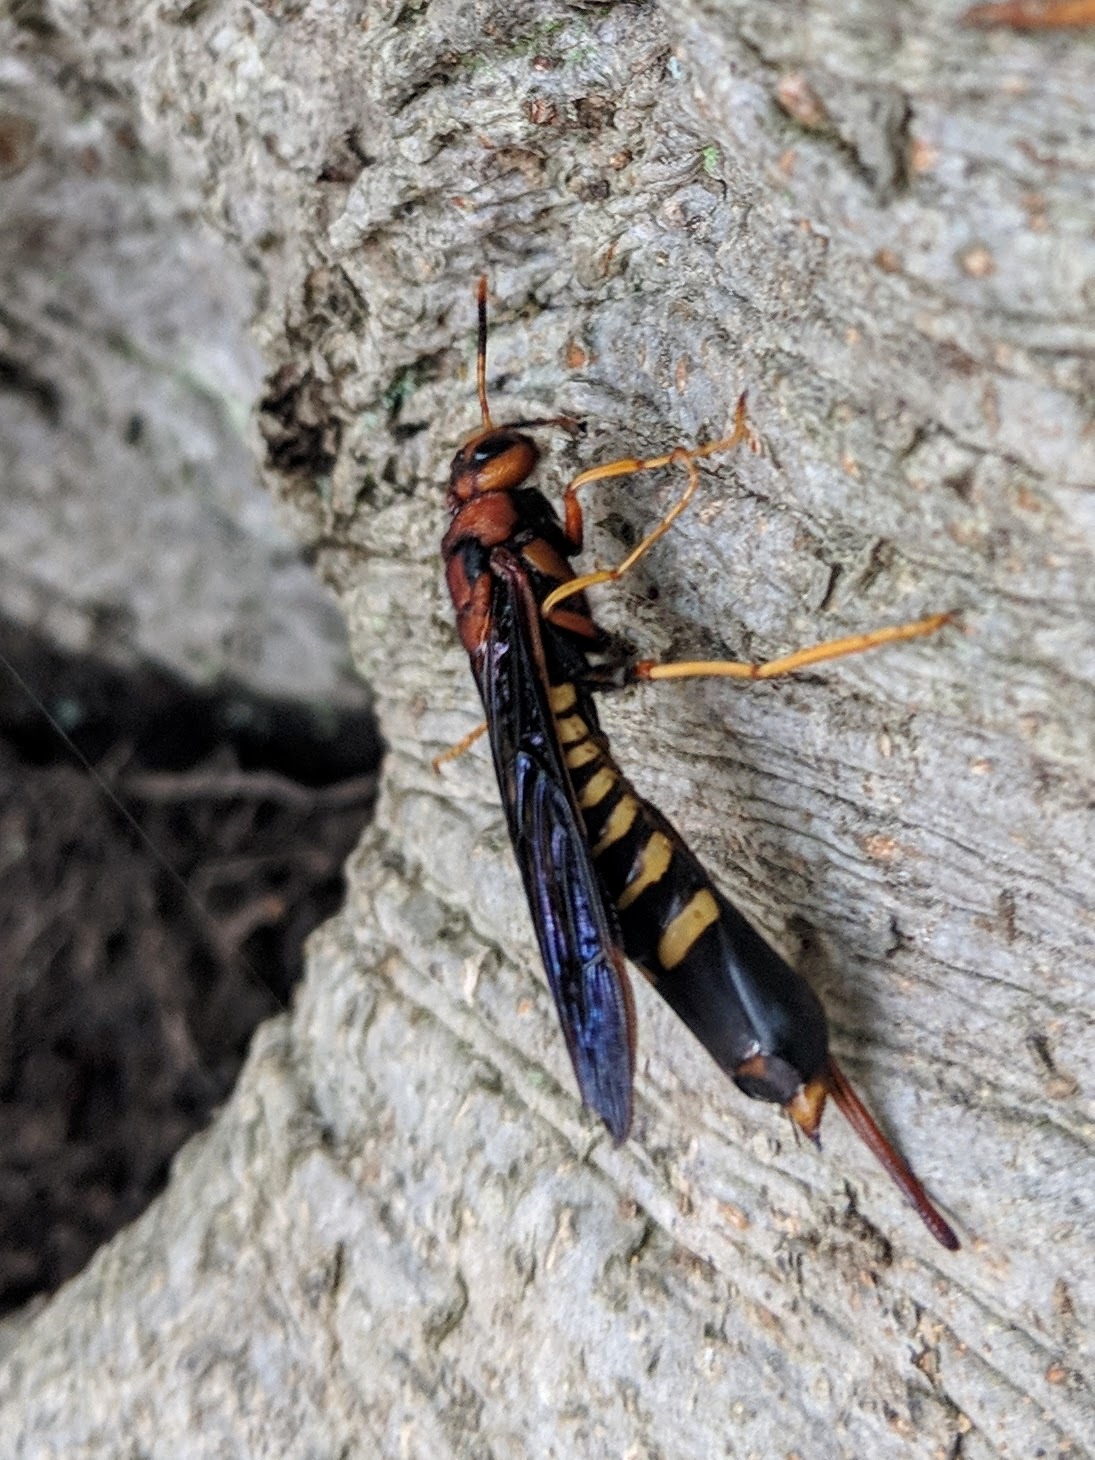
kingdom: Animalia
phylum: Arthropoda
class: Insecta
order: Hymenoptera
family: Siricidae
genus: Tremex
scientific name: Tremex columba
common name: Wasp
